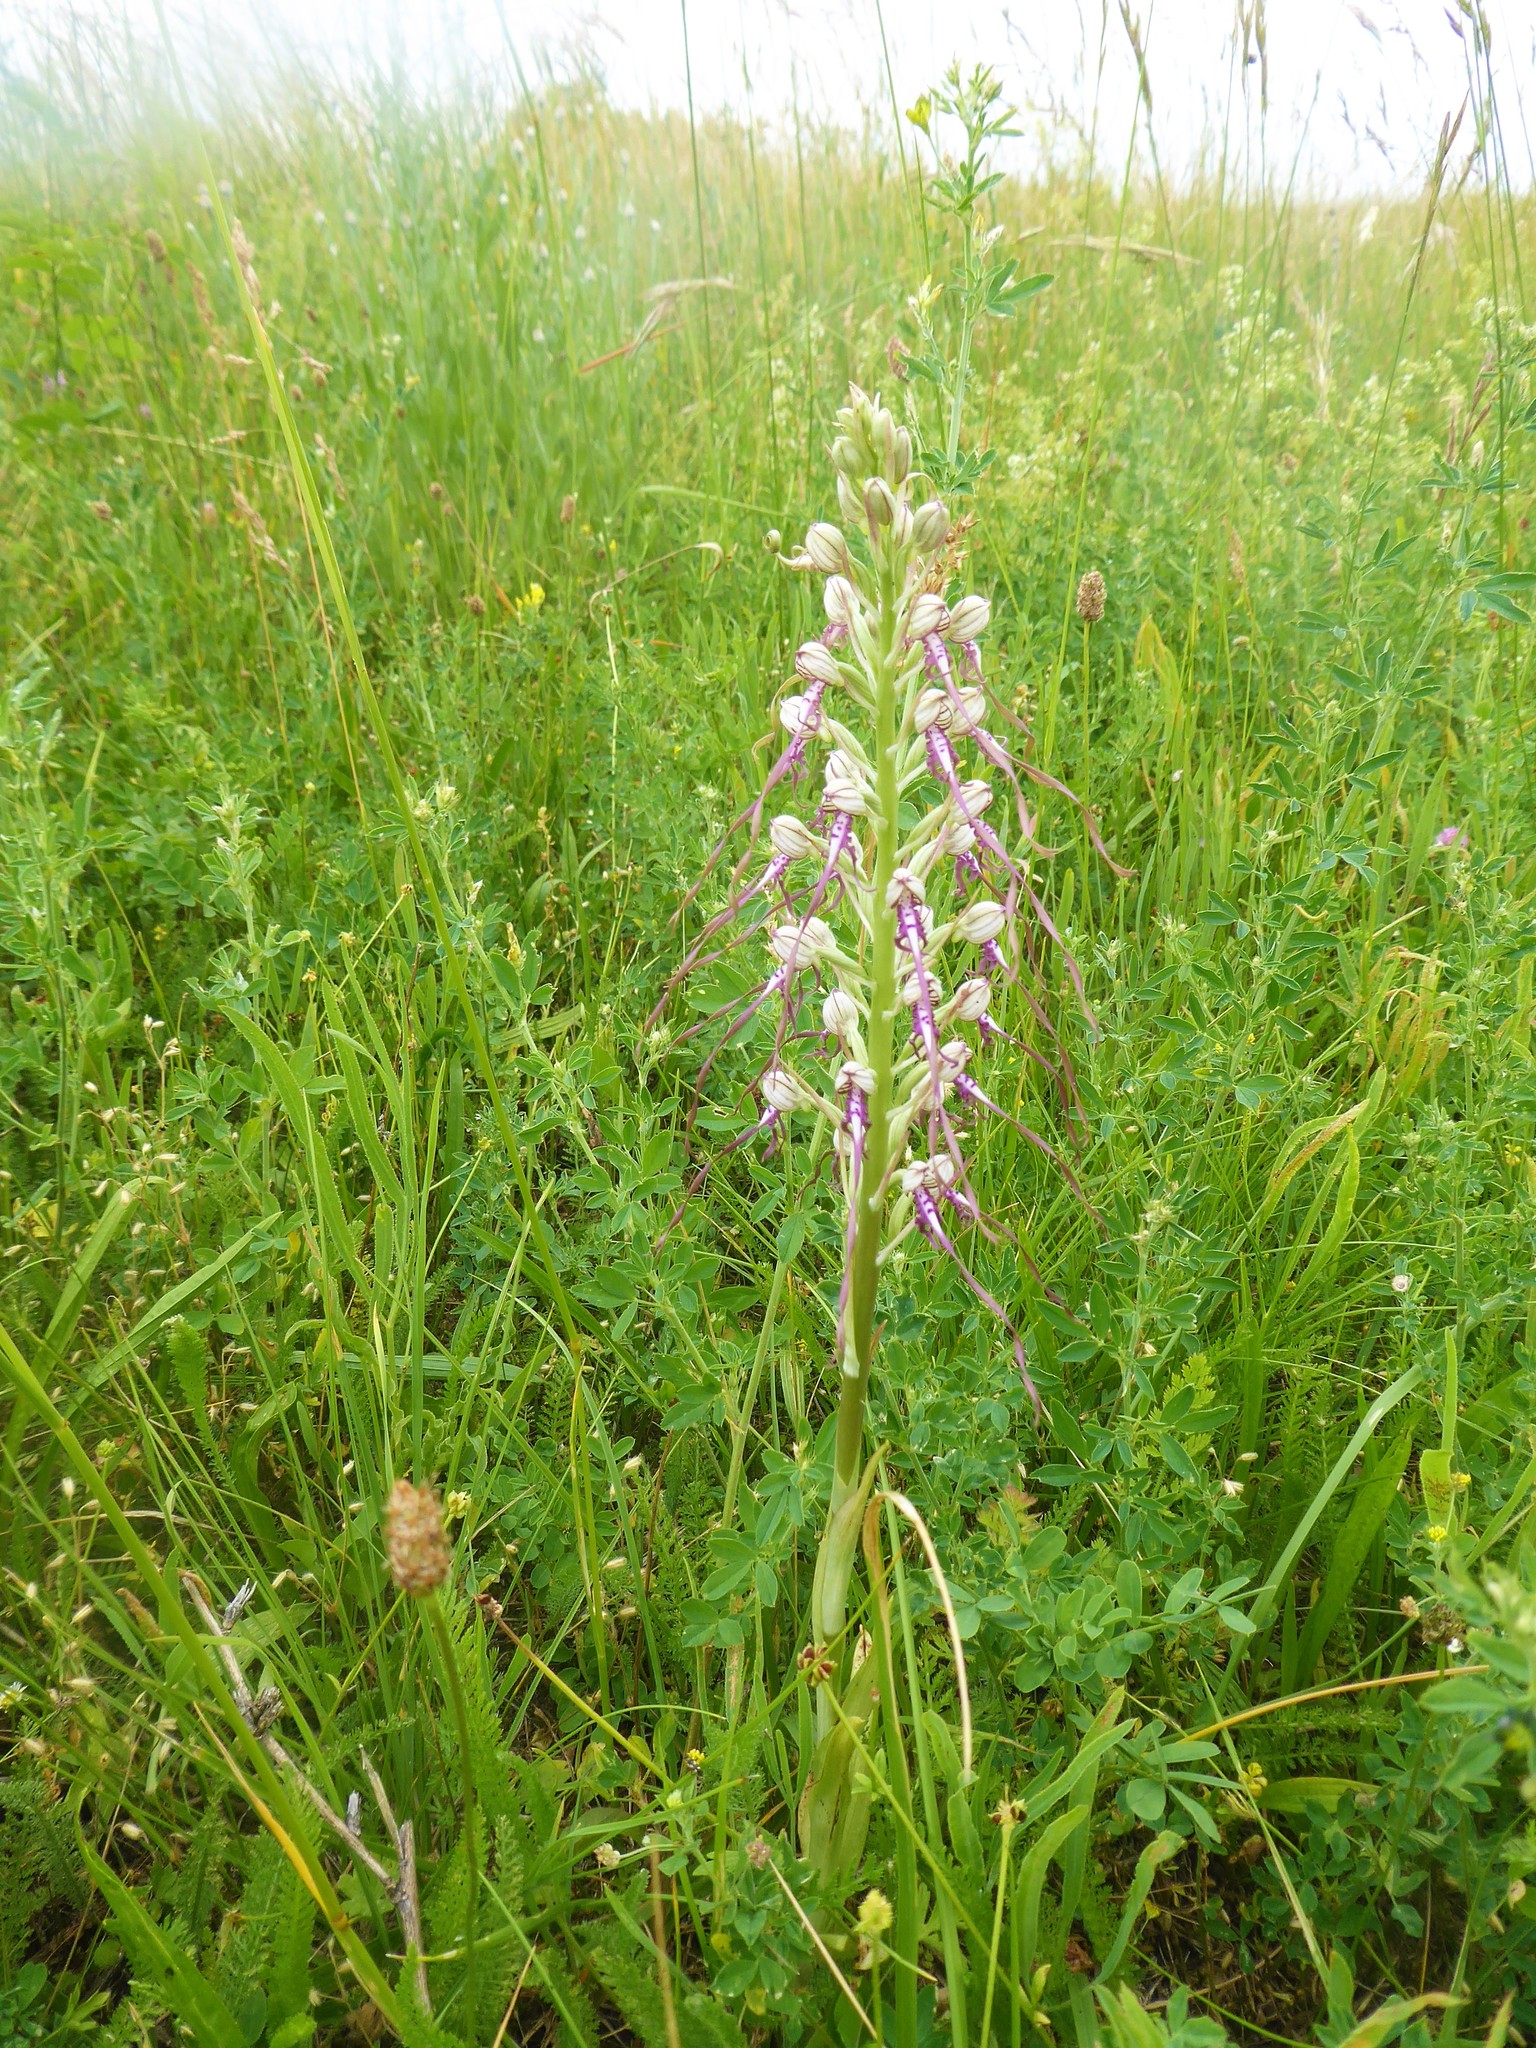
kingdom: Plantae
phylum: Tracheophyta
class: Liliopsida
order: Asparagales
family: Orchidaceae
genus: Himantoglossum
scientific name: Himantoglossum adriaticum
